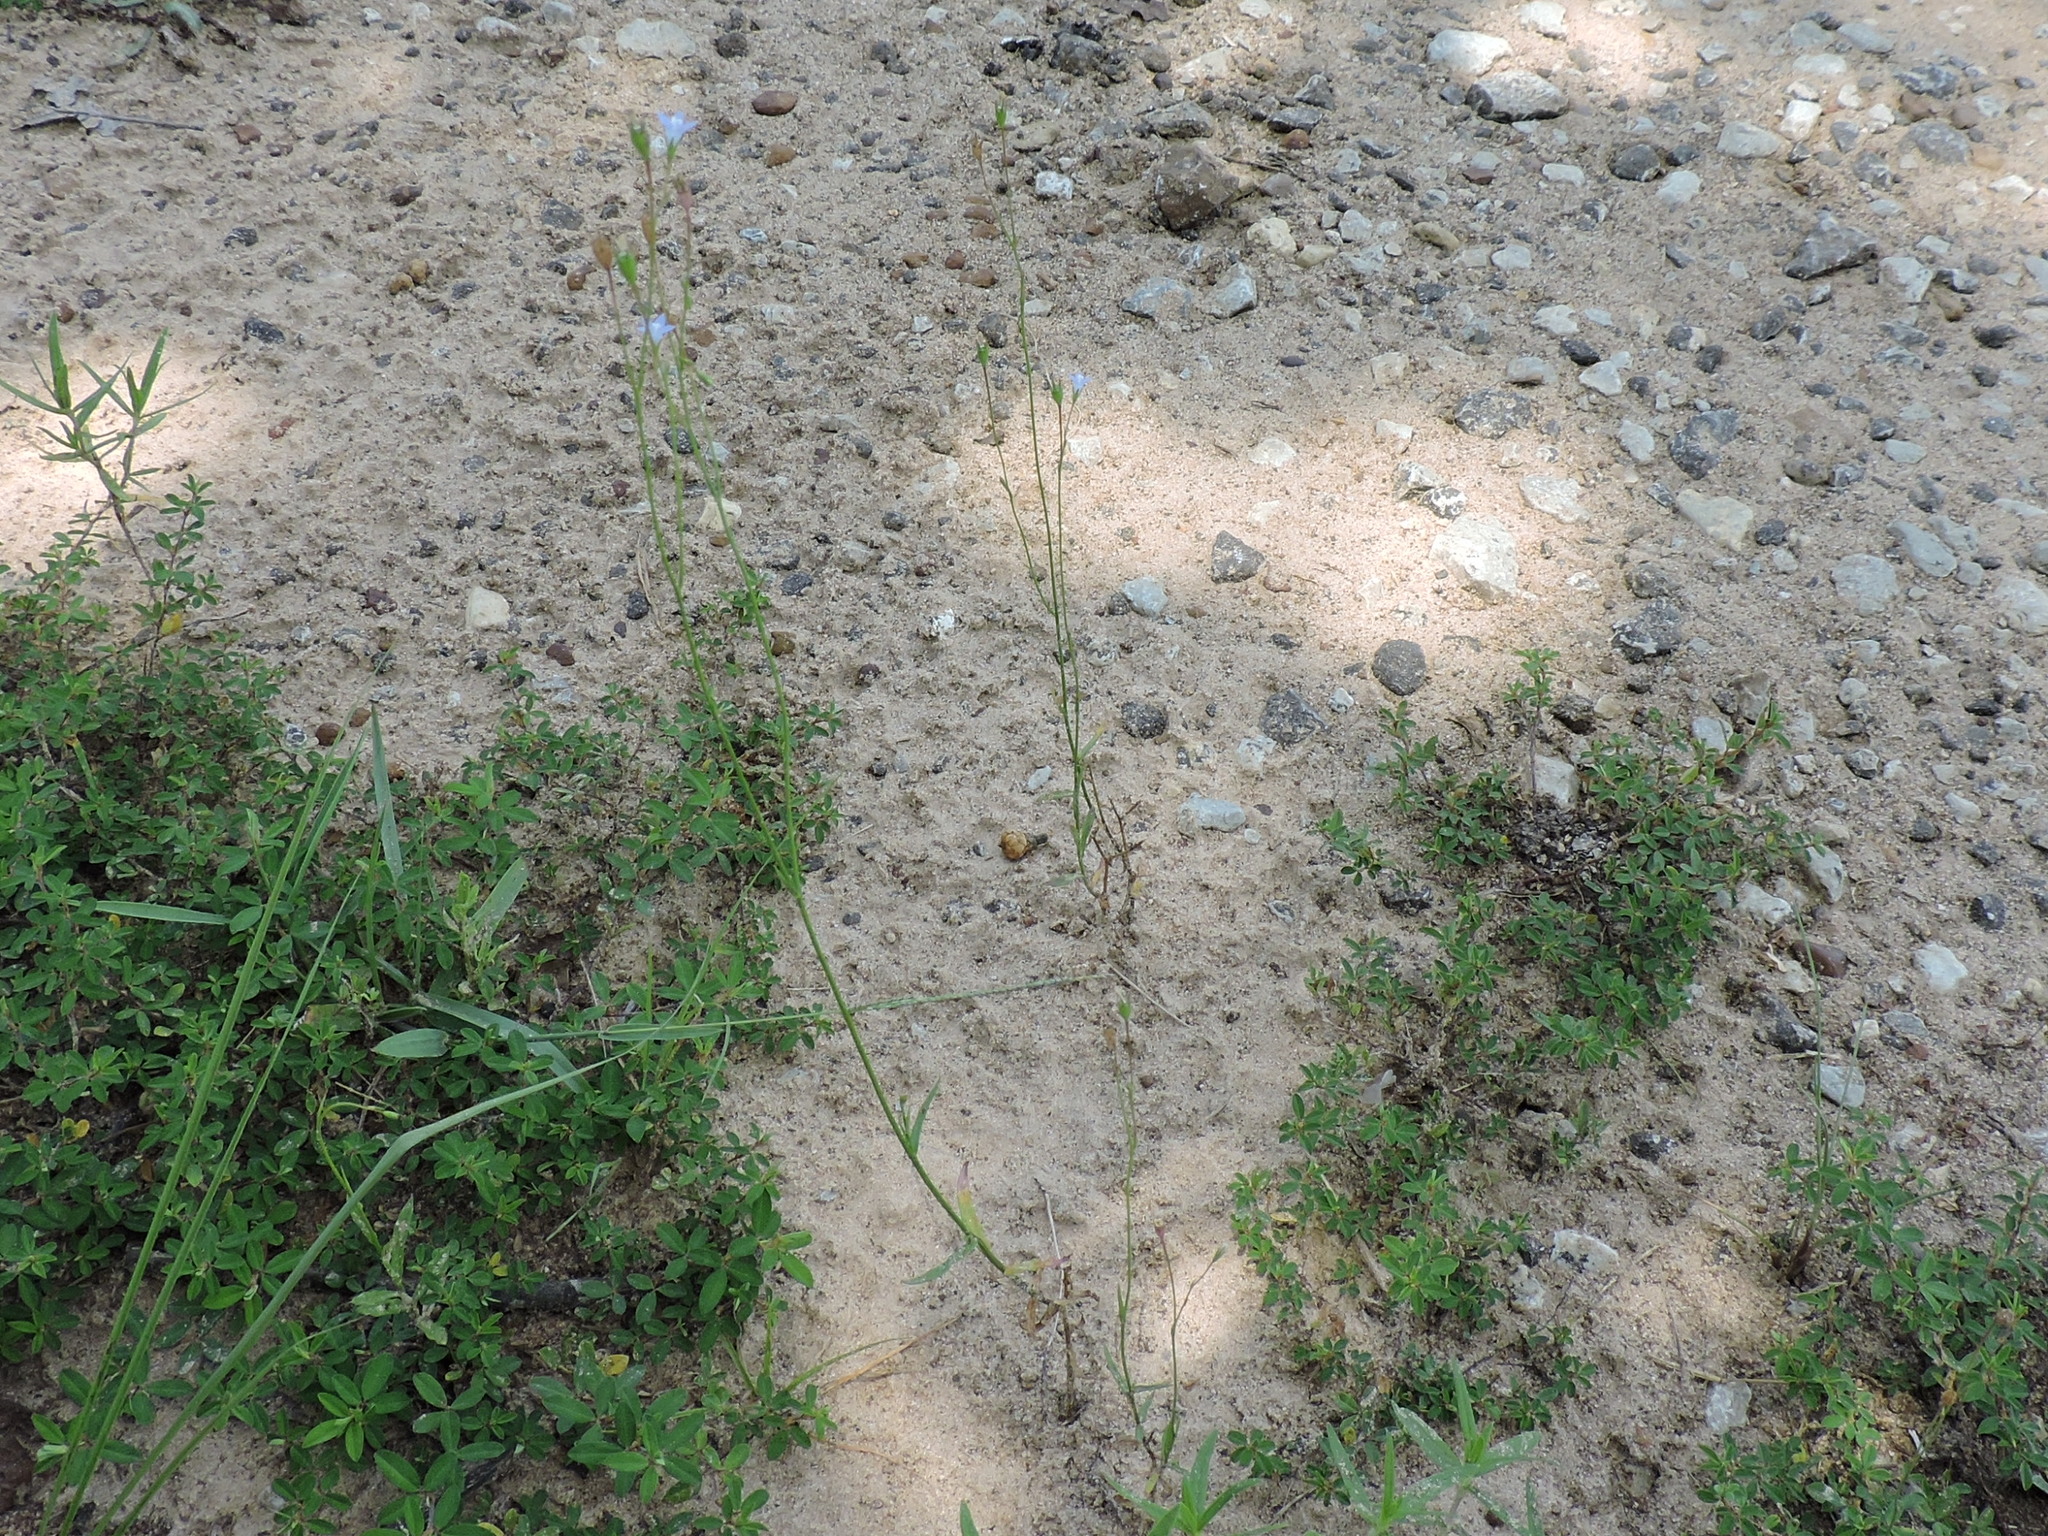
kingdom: Plantae
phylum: Tracheophyta
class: Magnoliopsida
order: Asterales
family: Campanulaceae
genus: Wahlenbergia
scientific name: Wahlenbergia marginata
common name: Southern rockbell
